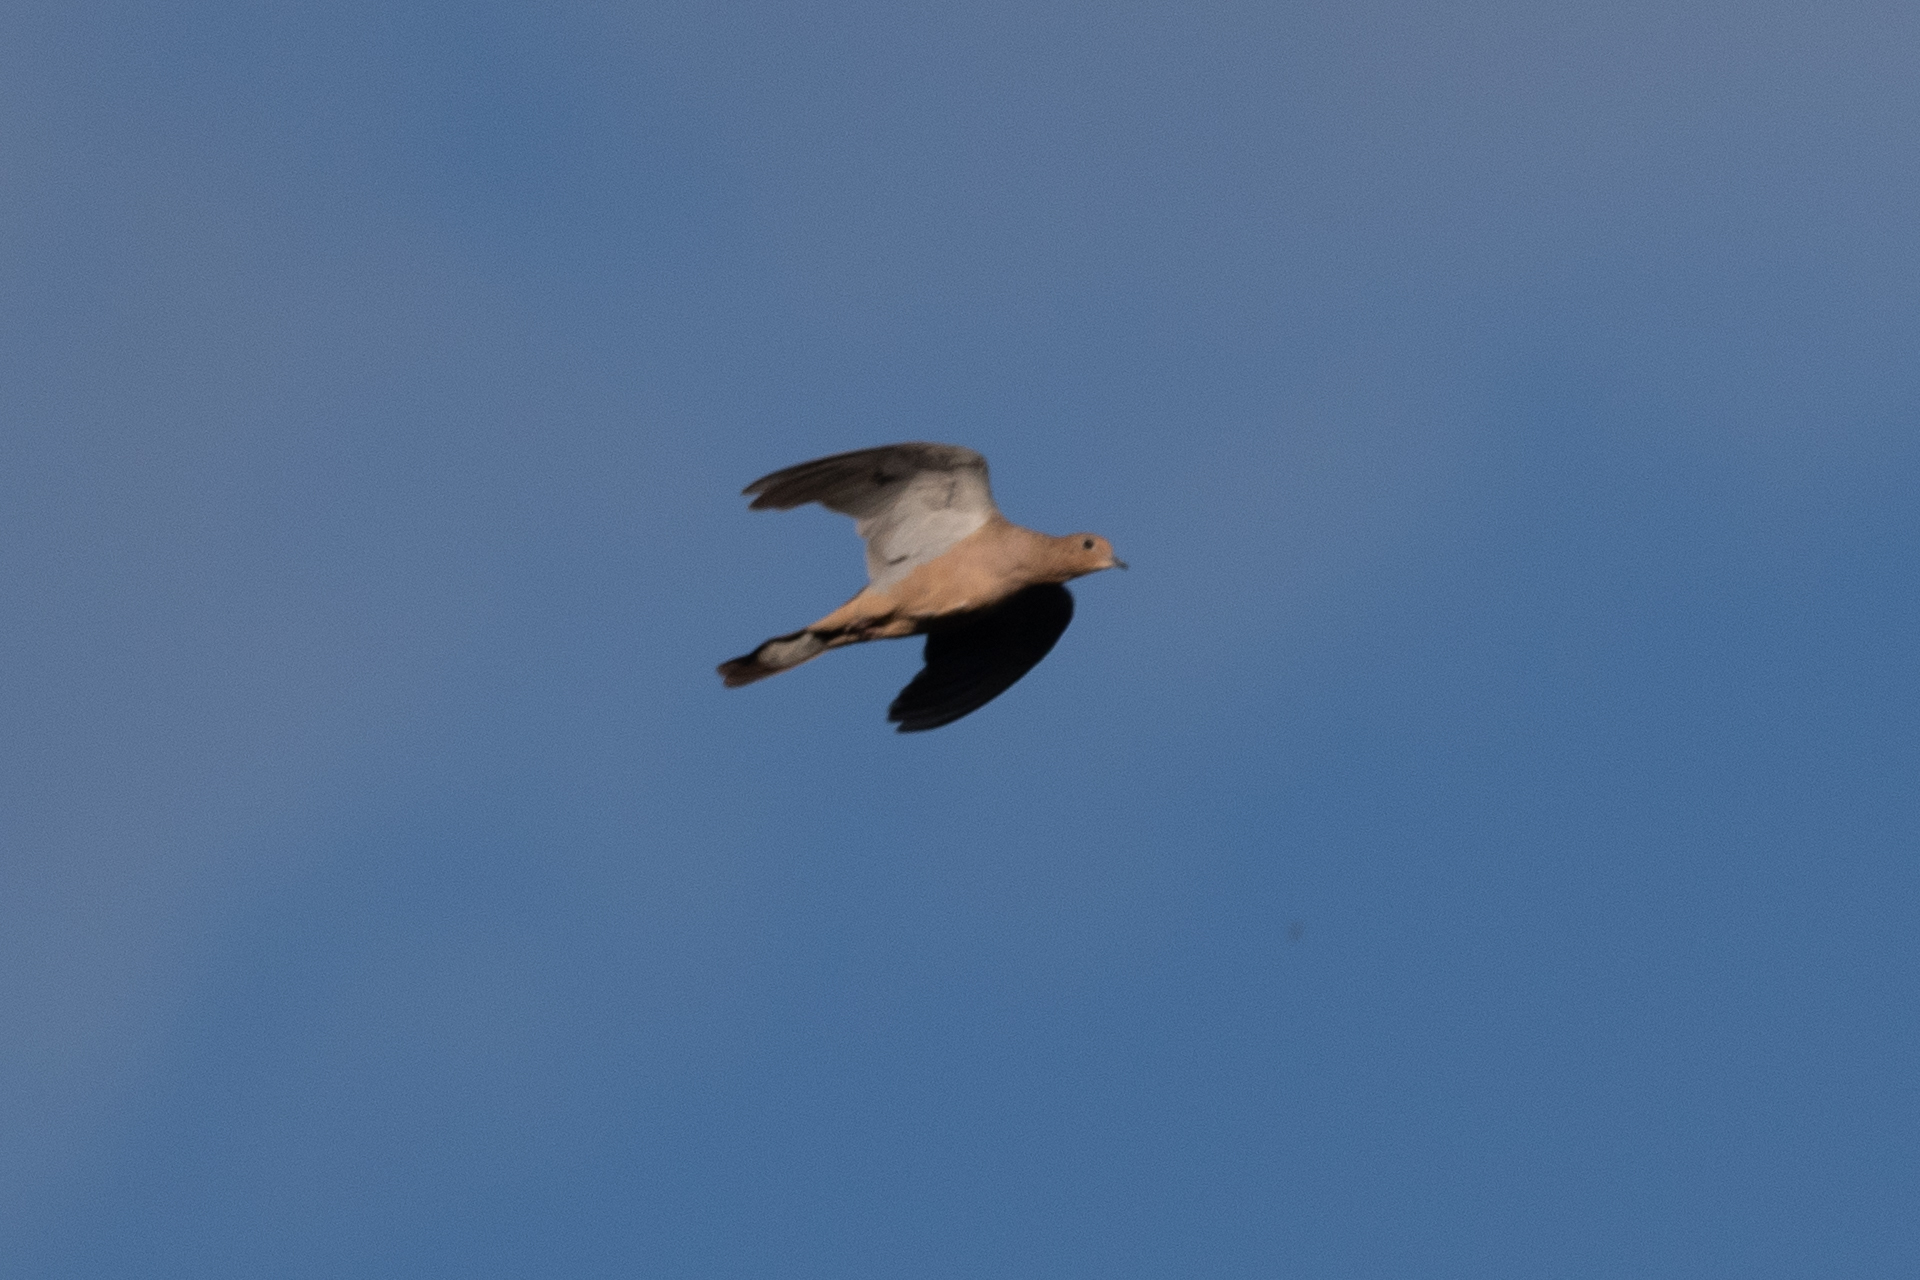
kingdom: Animalia
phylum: Chordata
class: Aves
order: Columbiformes
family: Columbidae
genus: Zenaida
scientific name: Zenaida macroura
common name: Mourning dove
